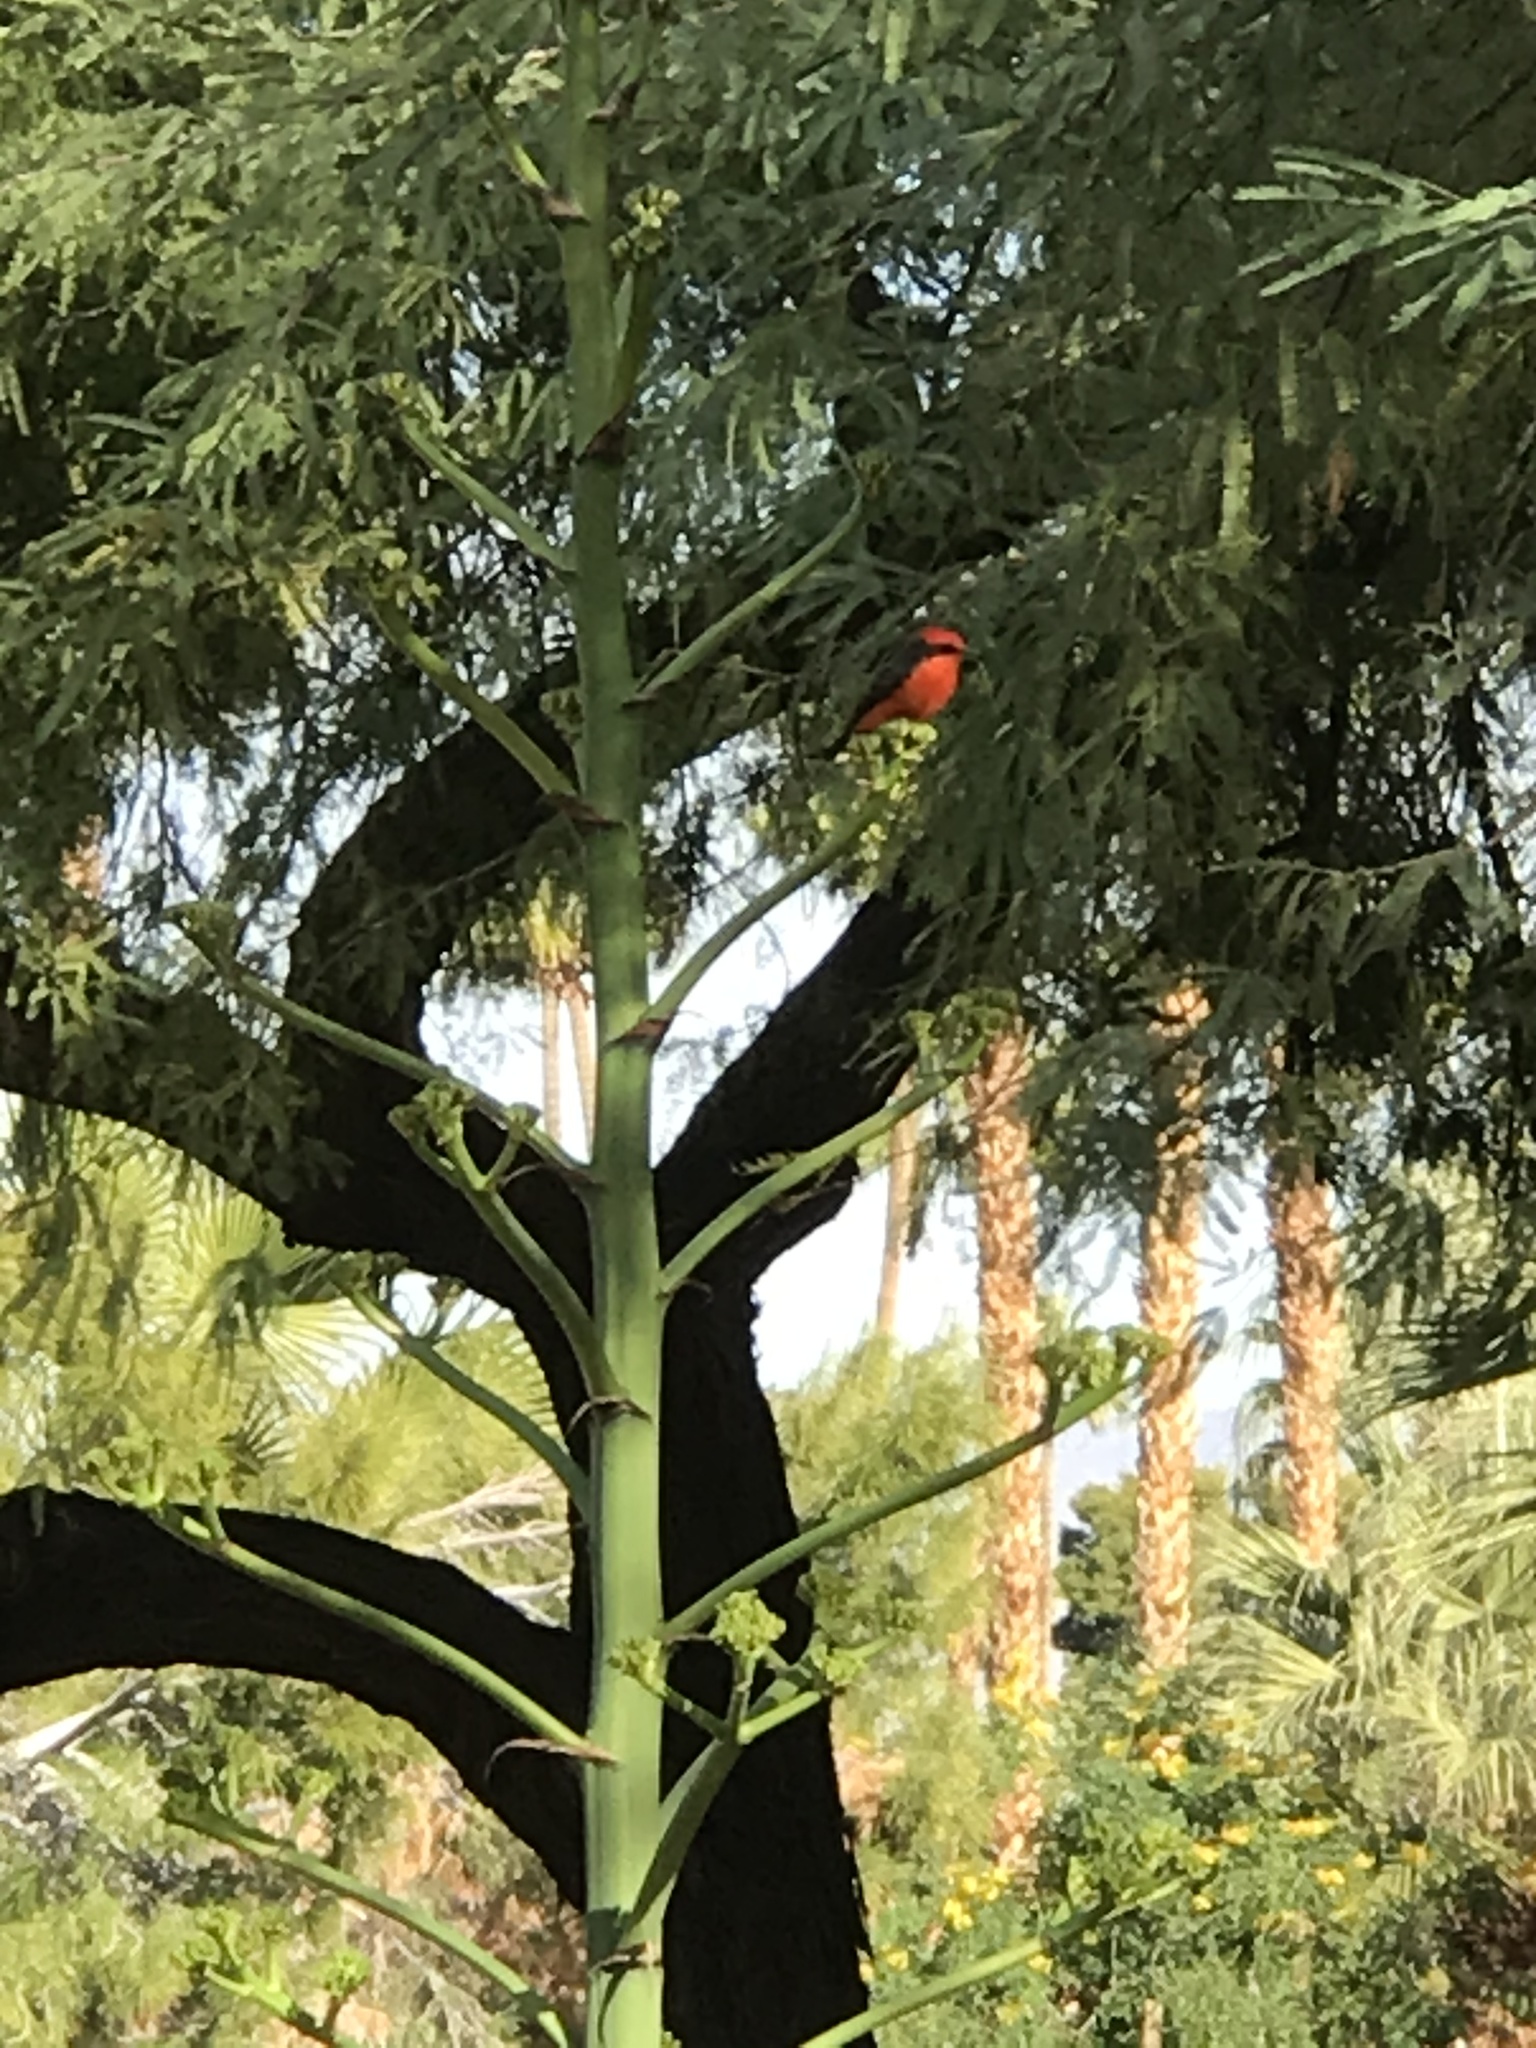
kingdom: Animalia
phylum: Chordata
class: Aves
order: Passeriformes
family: Tyrannidae
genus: Pyrocephalus
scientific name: Pyrocephalus rubinus
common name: Vermilion flycatcher
